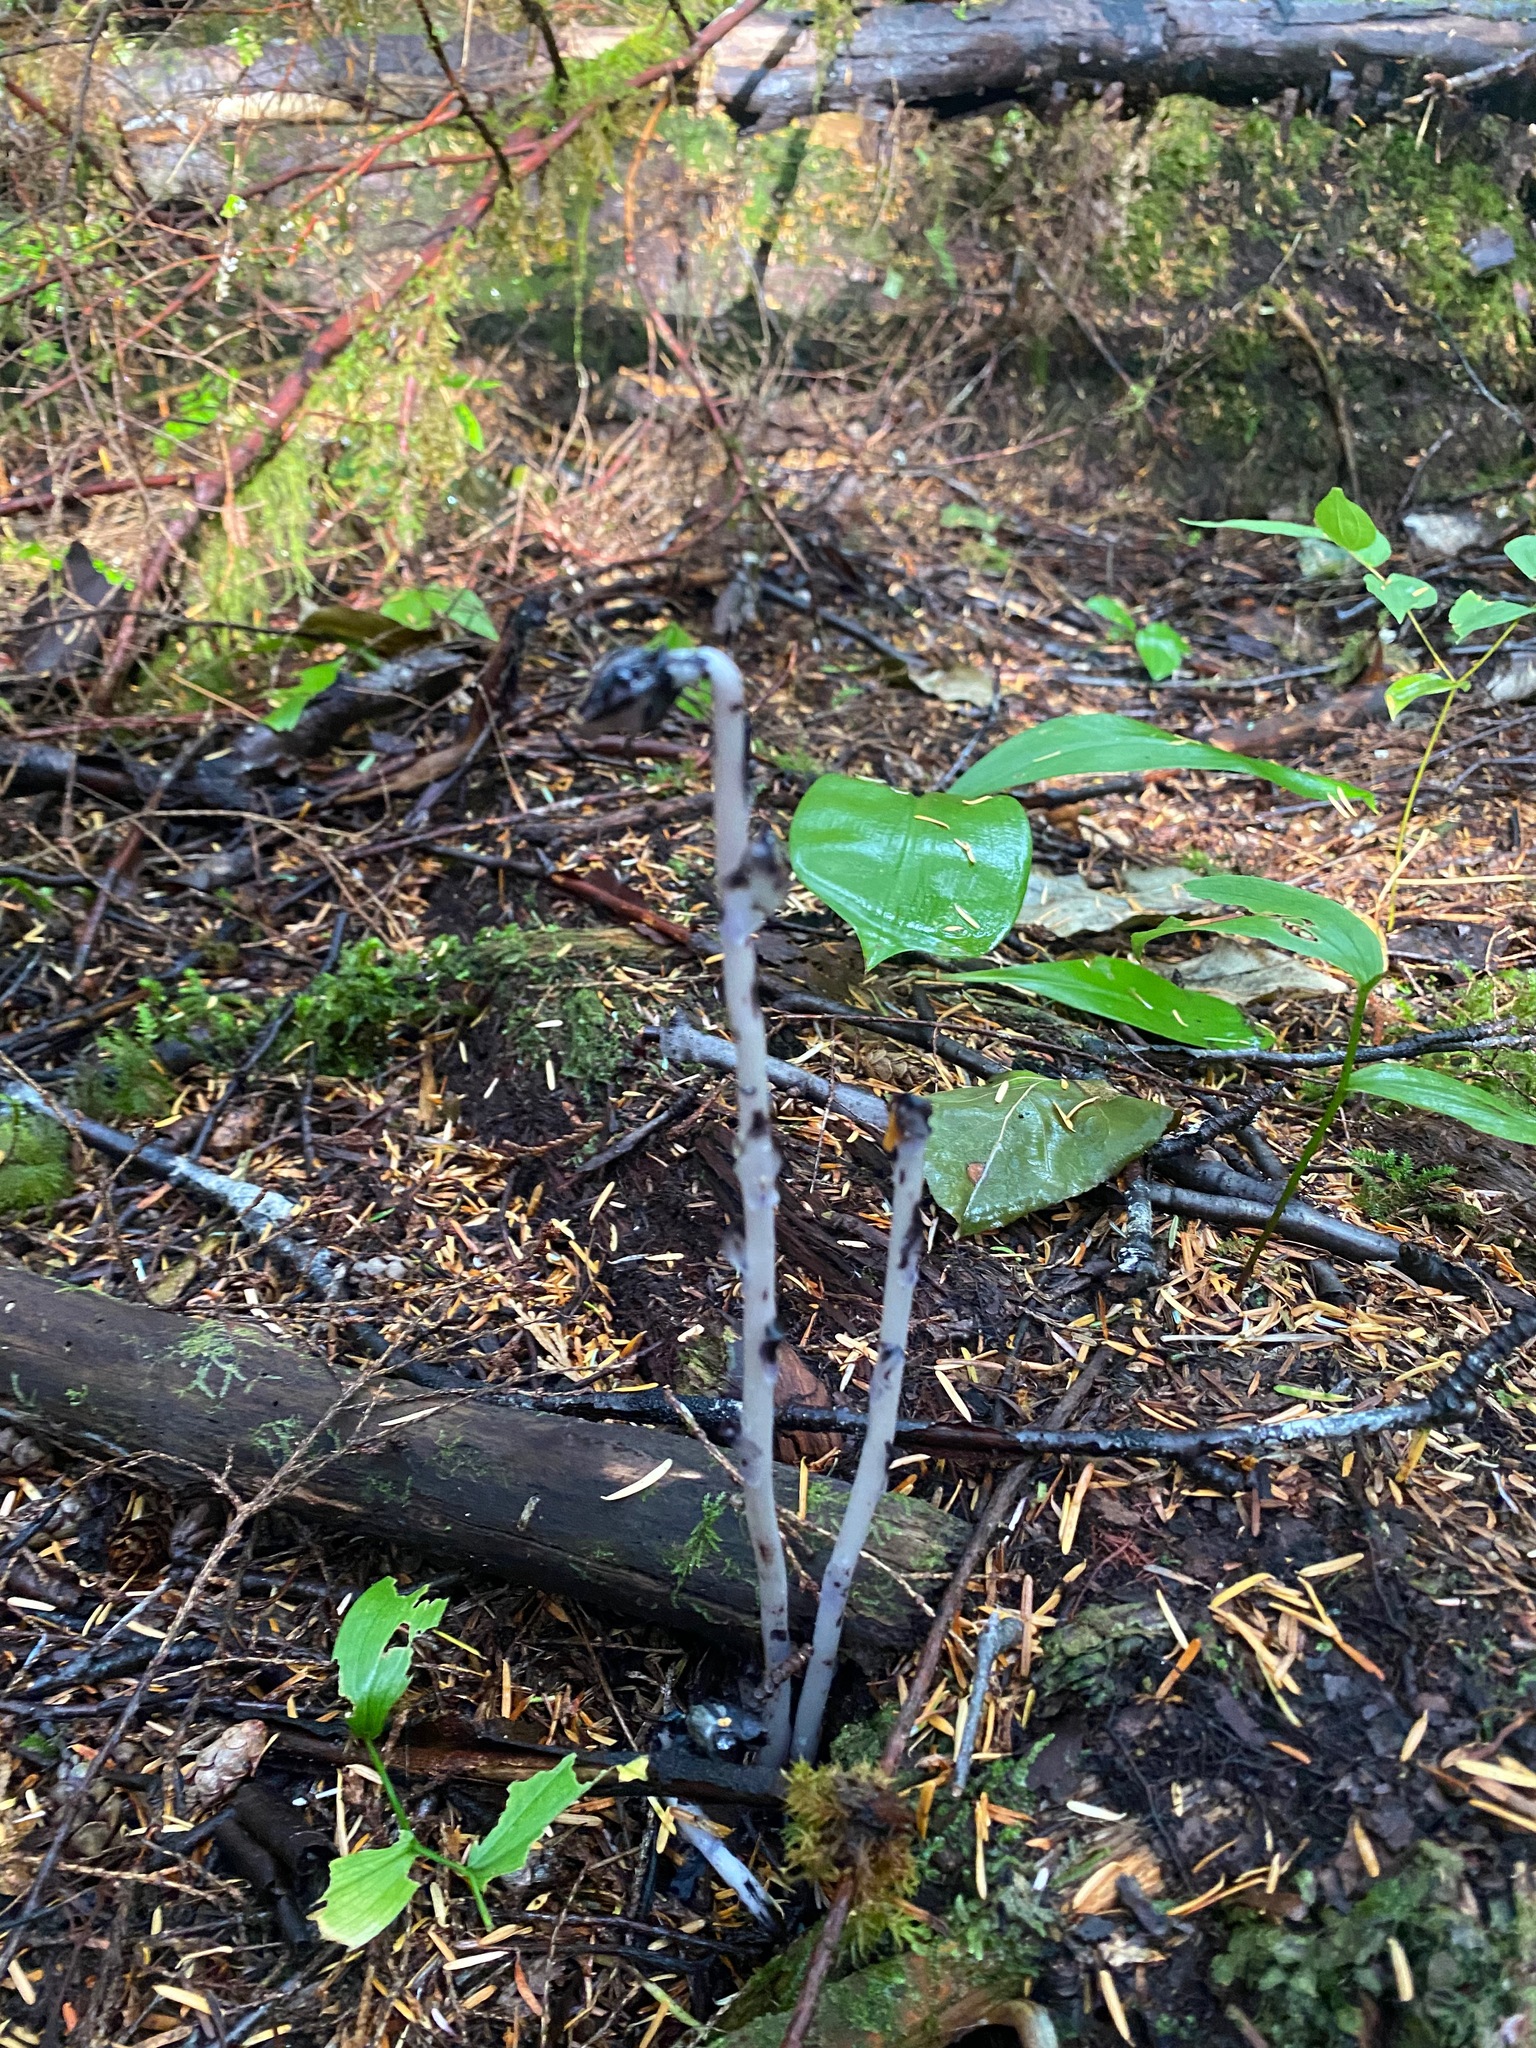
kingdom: Plantae
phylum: Tracheophyta
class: Magnoliopsida
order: Ericales
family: Ericaceae
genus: Monotropa
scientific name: Monotropa uniflora
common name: Convulsion root
